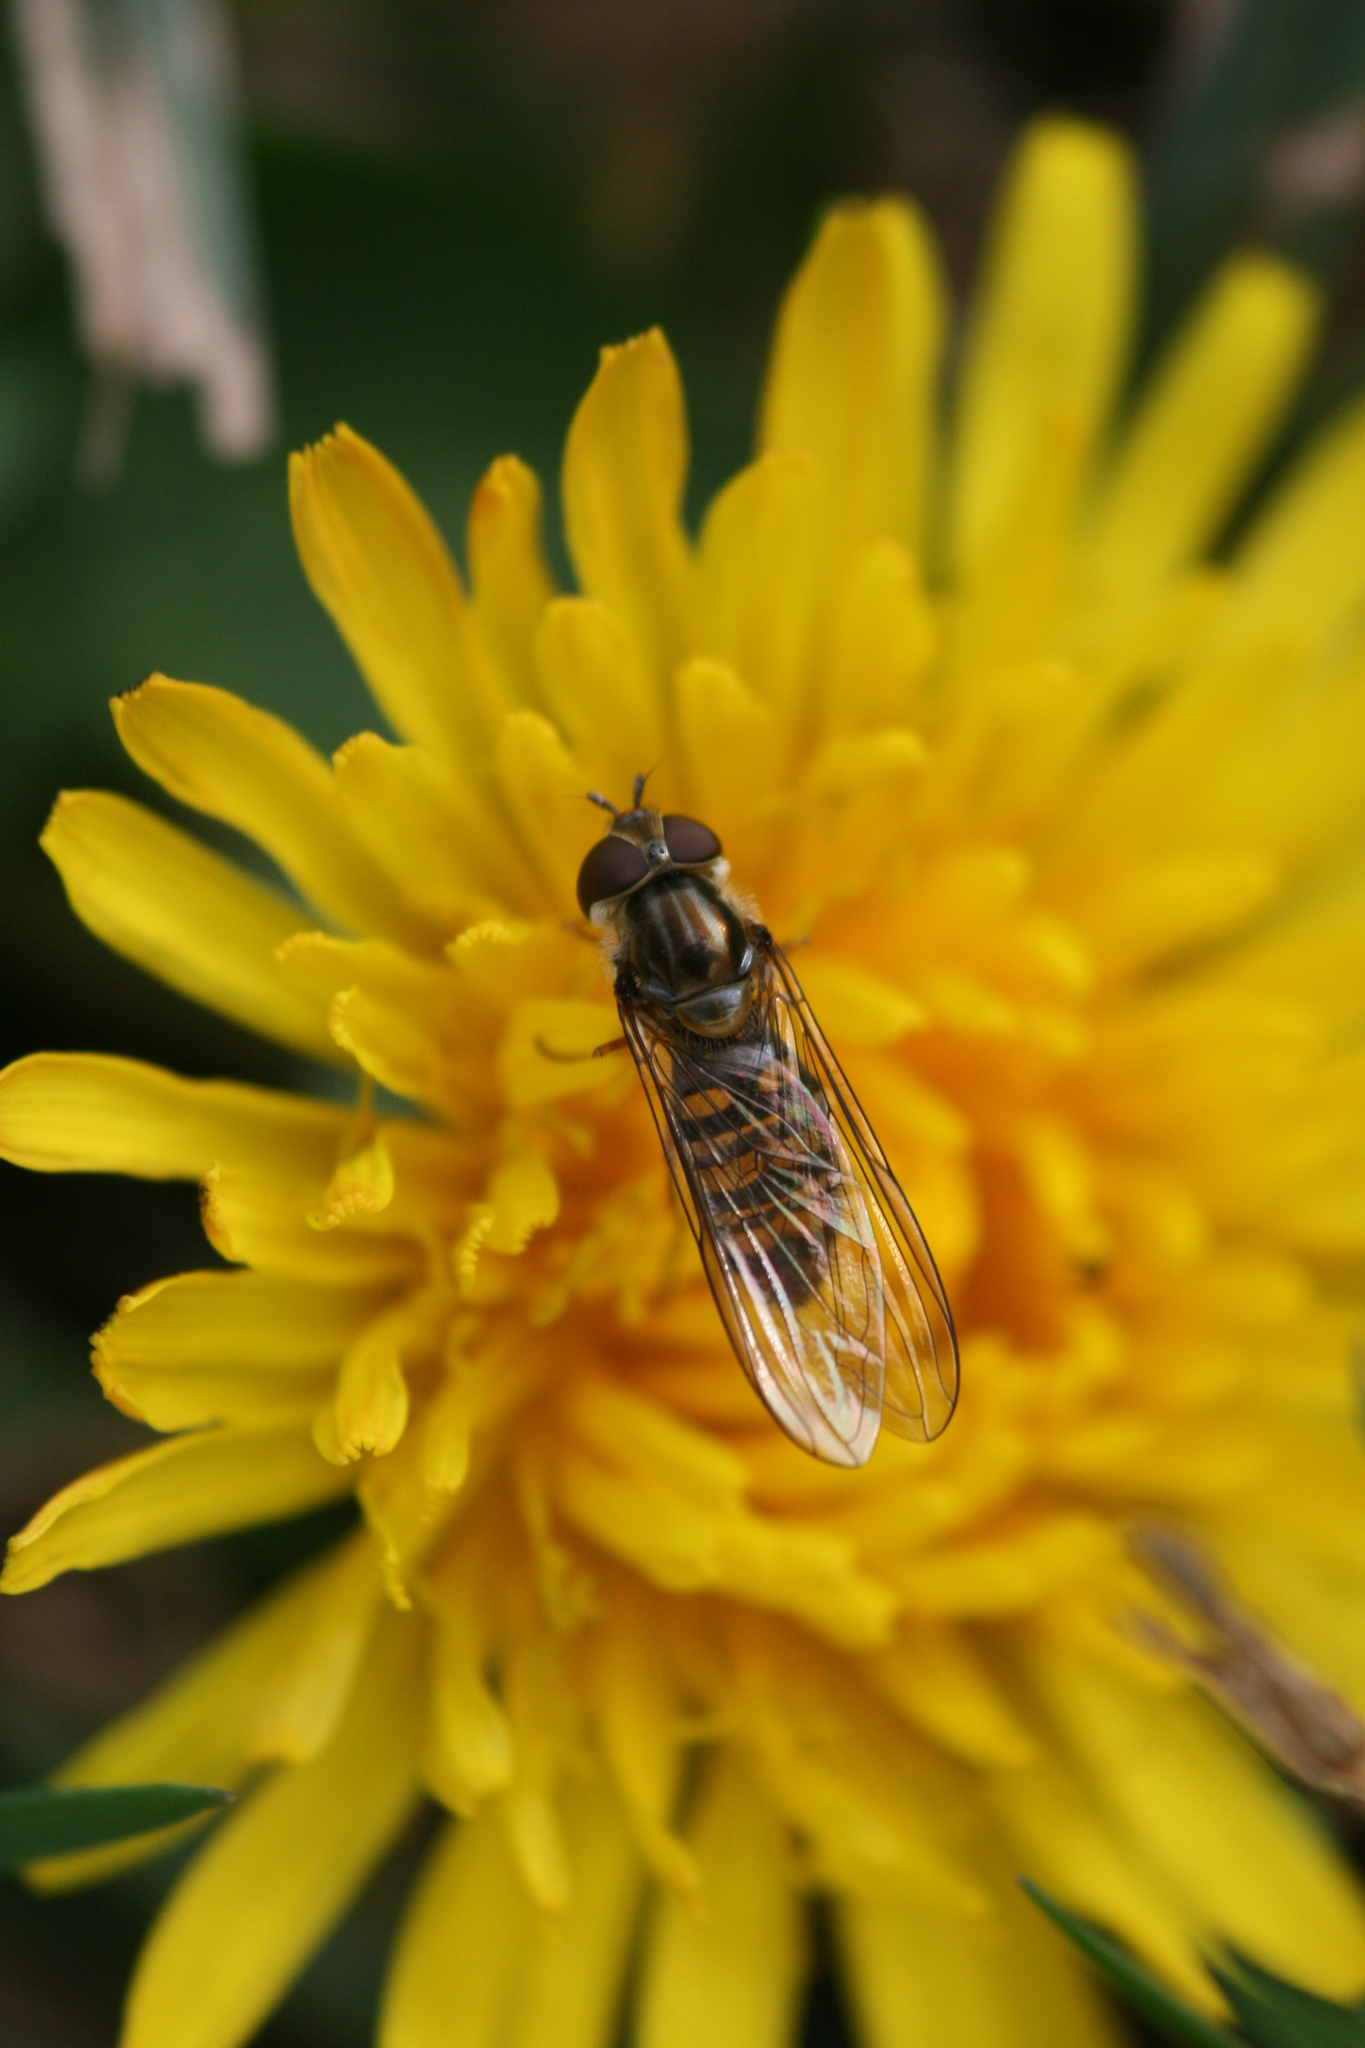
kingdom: Animalia
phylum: Arthropoda
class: Insecta
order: Diptera
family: Syrphidae
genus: Episyrphus
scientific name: Episyrphus balteatus
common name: Marmalade hoverfly
